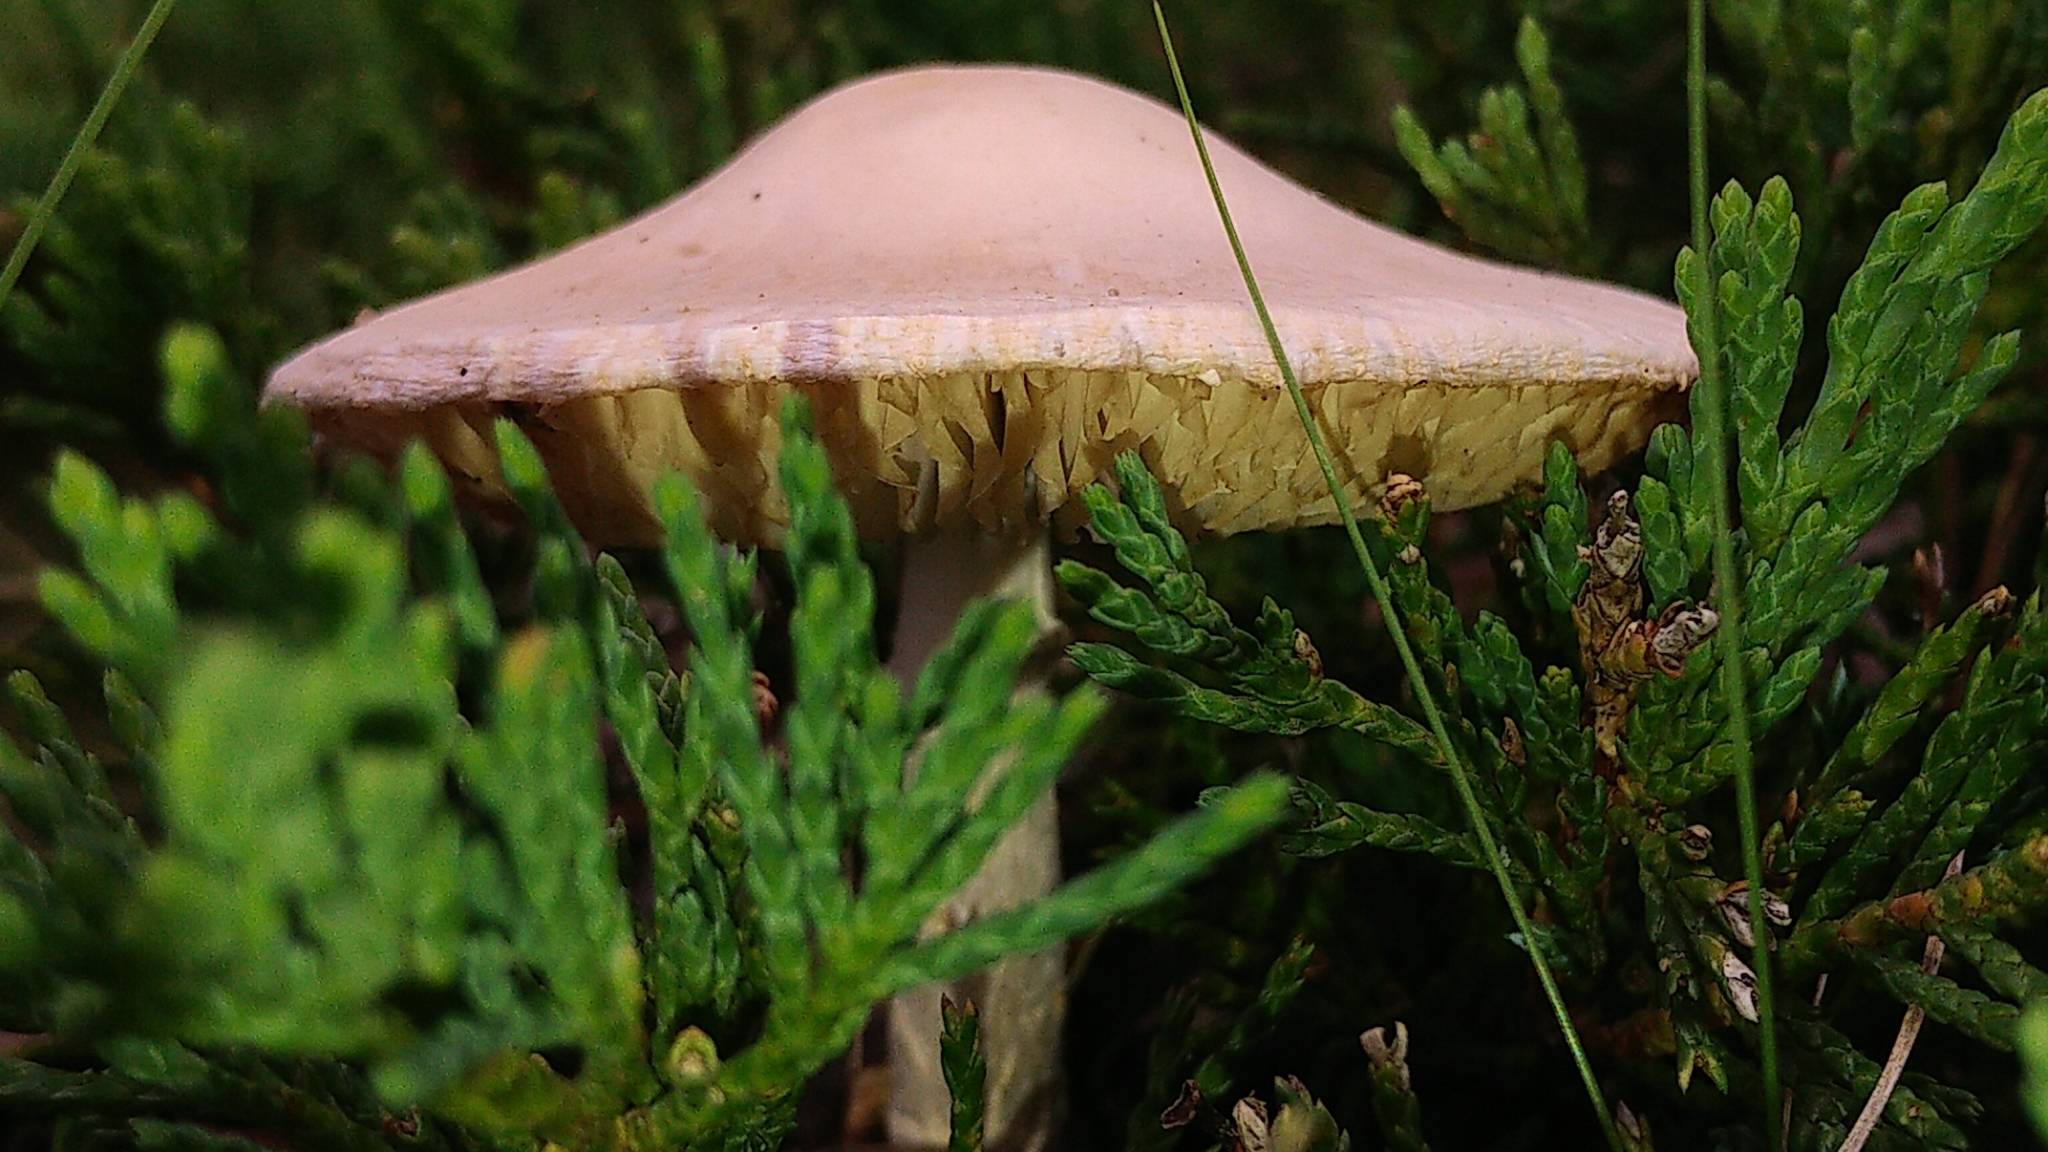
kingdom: Fungi
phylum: Basidiomycota
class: Agaricomycetes
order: Agaricales
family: Agaricaceae
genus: Leucoagaricus
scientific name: Leucoagaricus leucothites
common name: White dapperling
